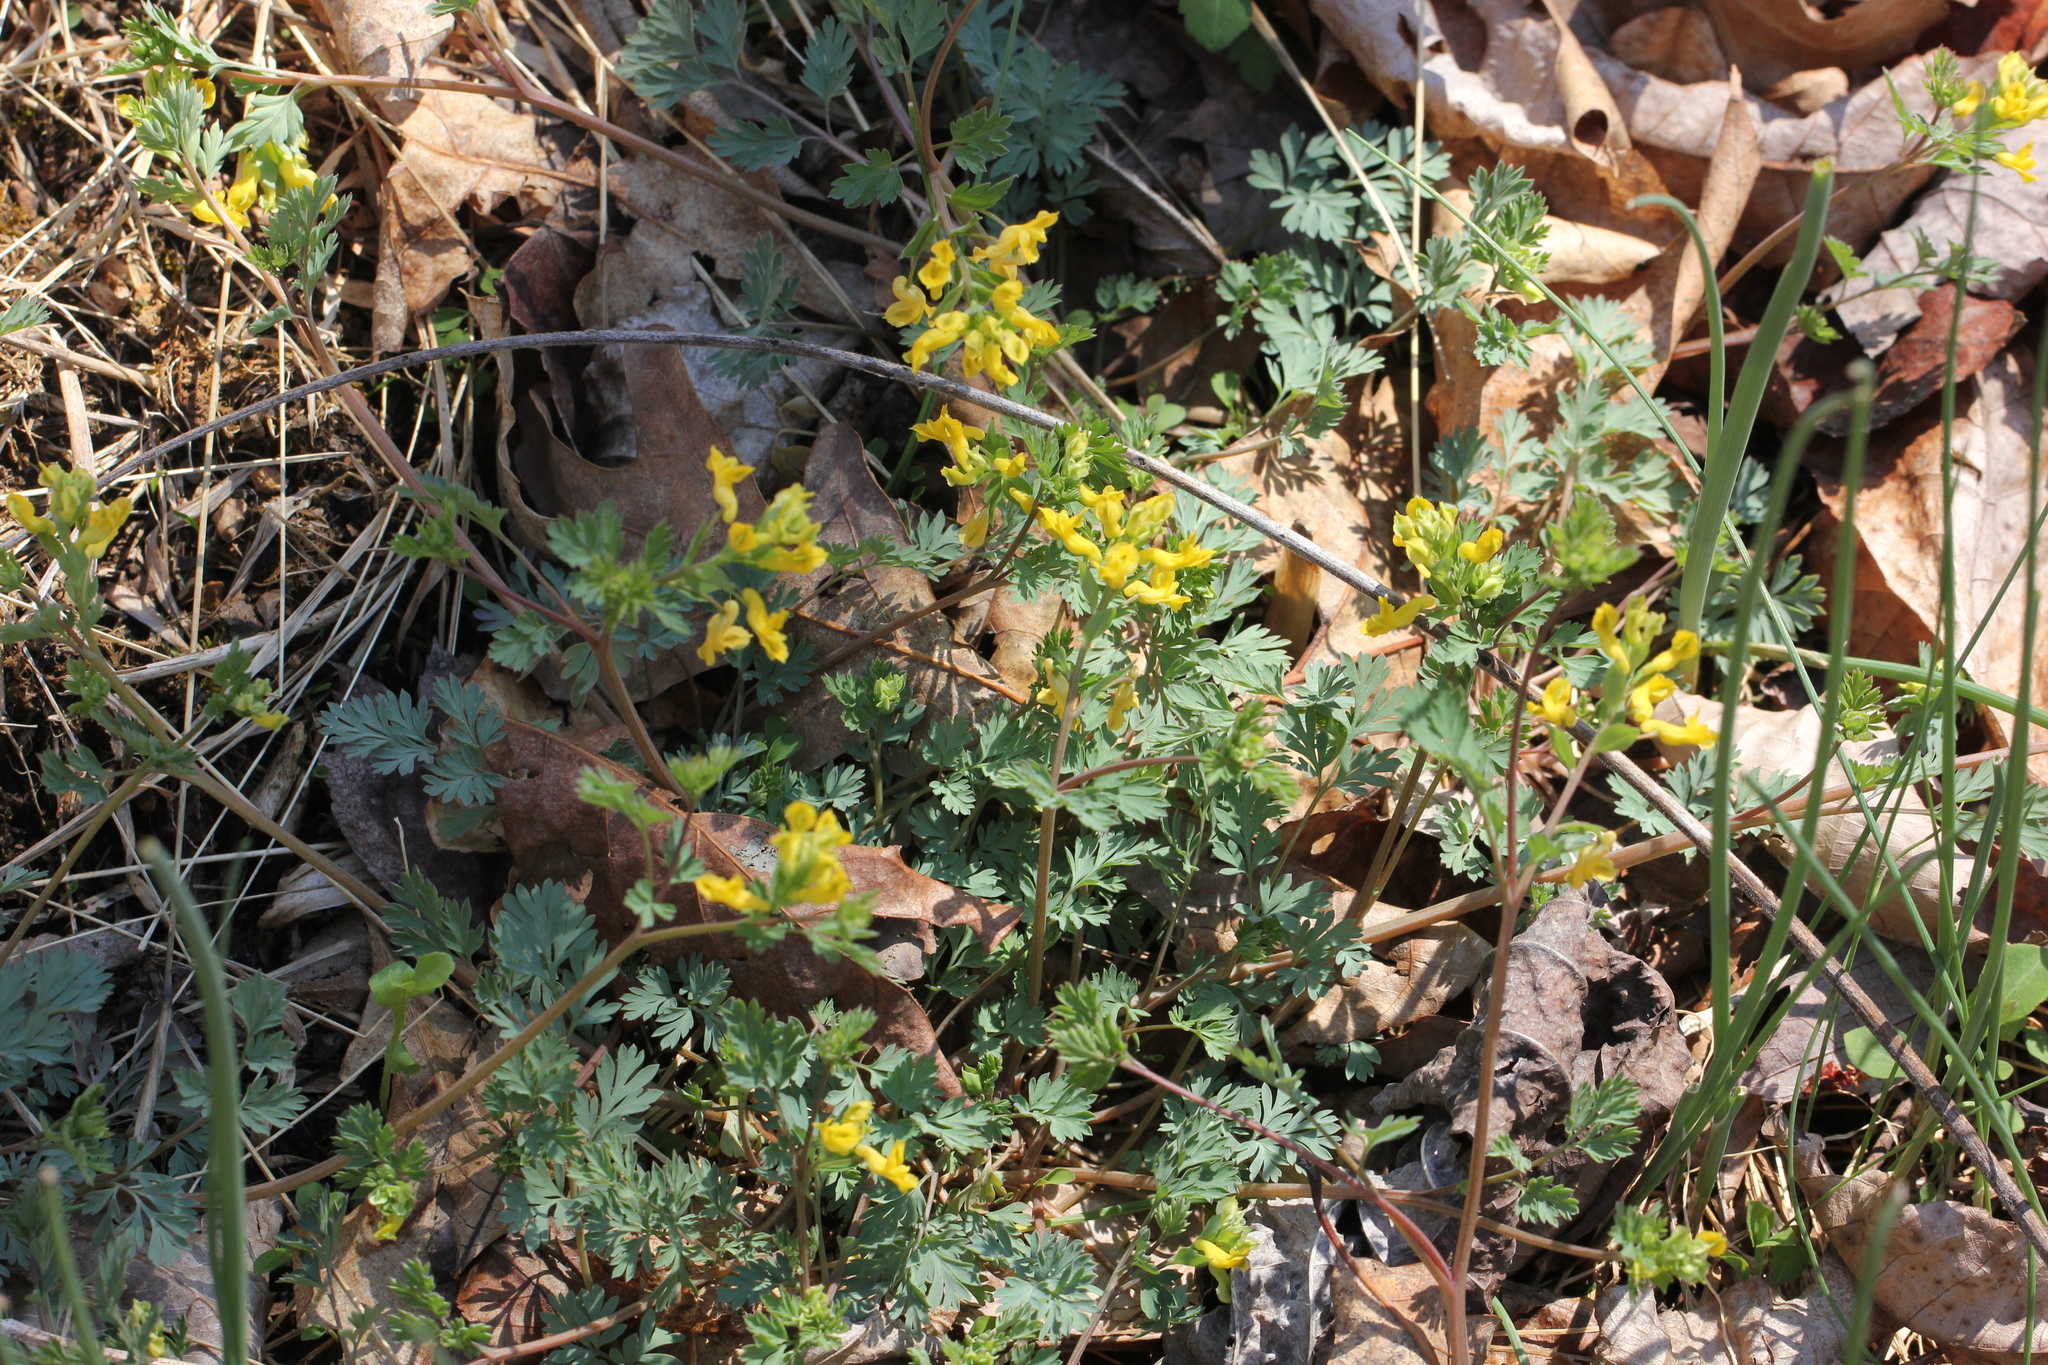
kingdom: Plantae
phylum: Tracheophyta
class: Magnoliopsida
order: Ranunculales
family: Papaveraceae
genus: Corydalis
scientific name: Corydalis flavula
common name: Yellow corydalis
